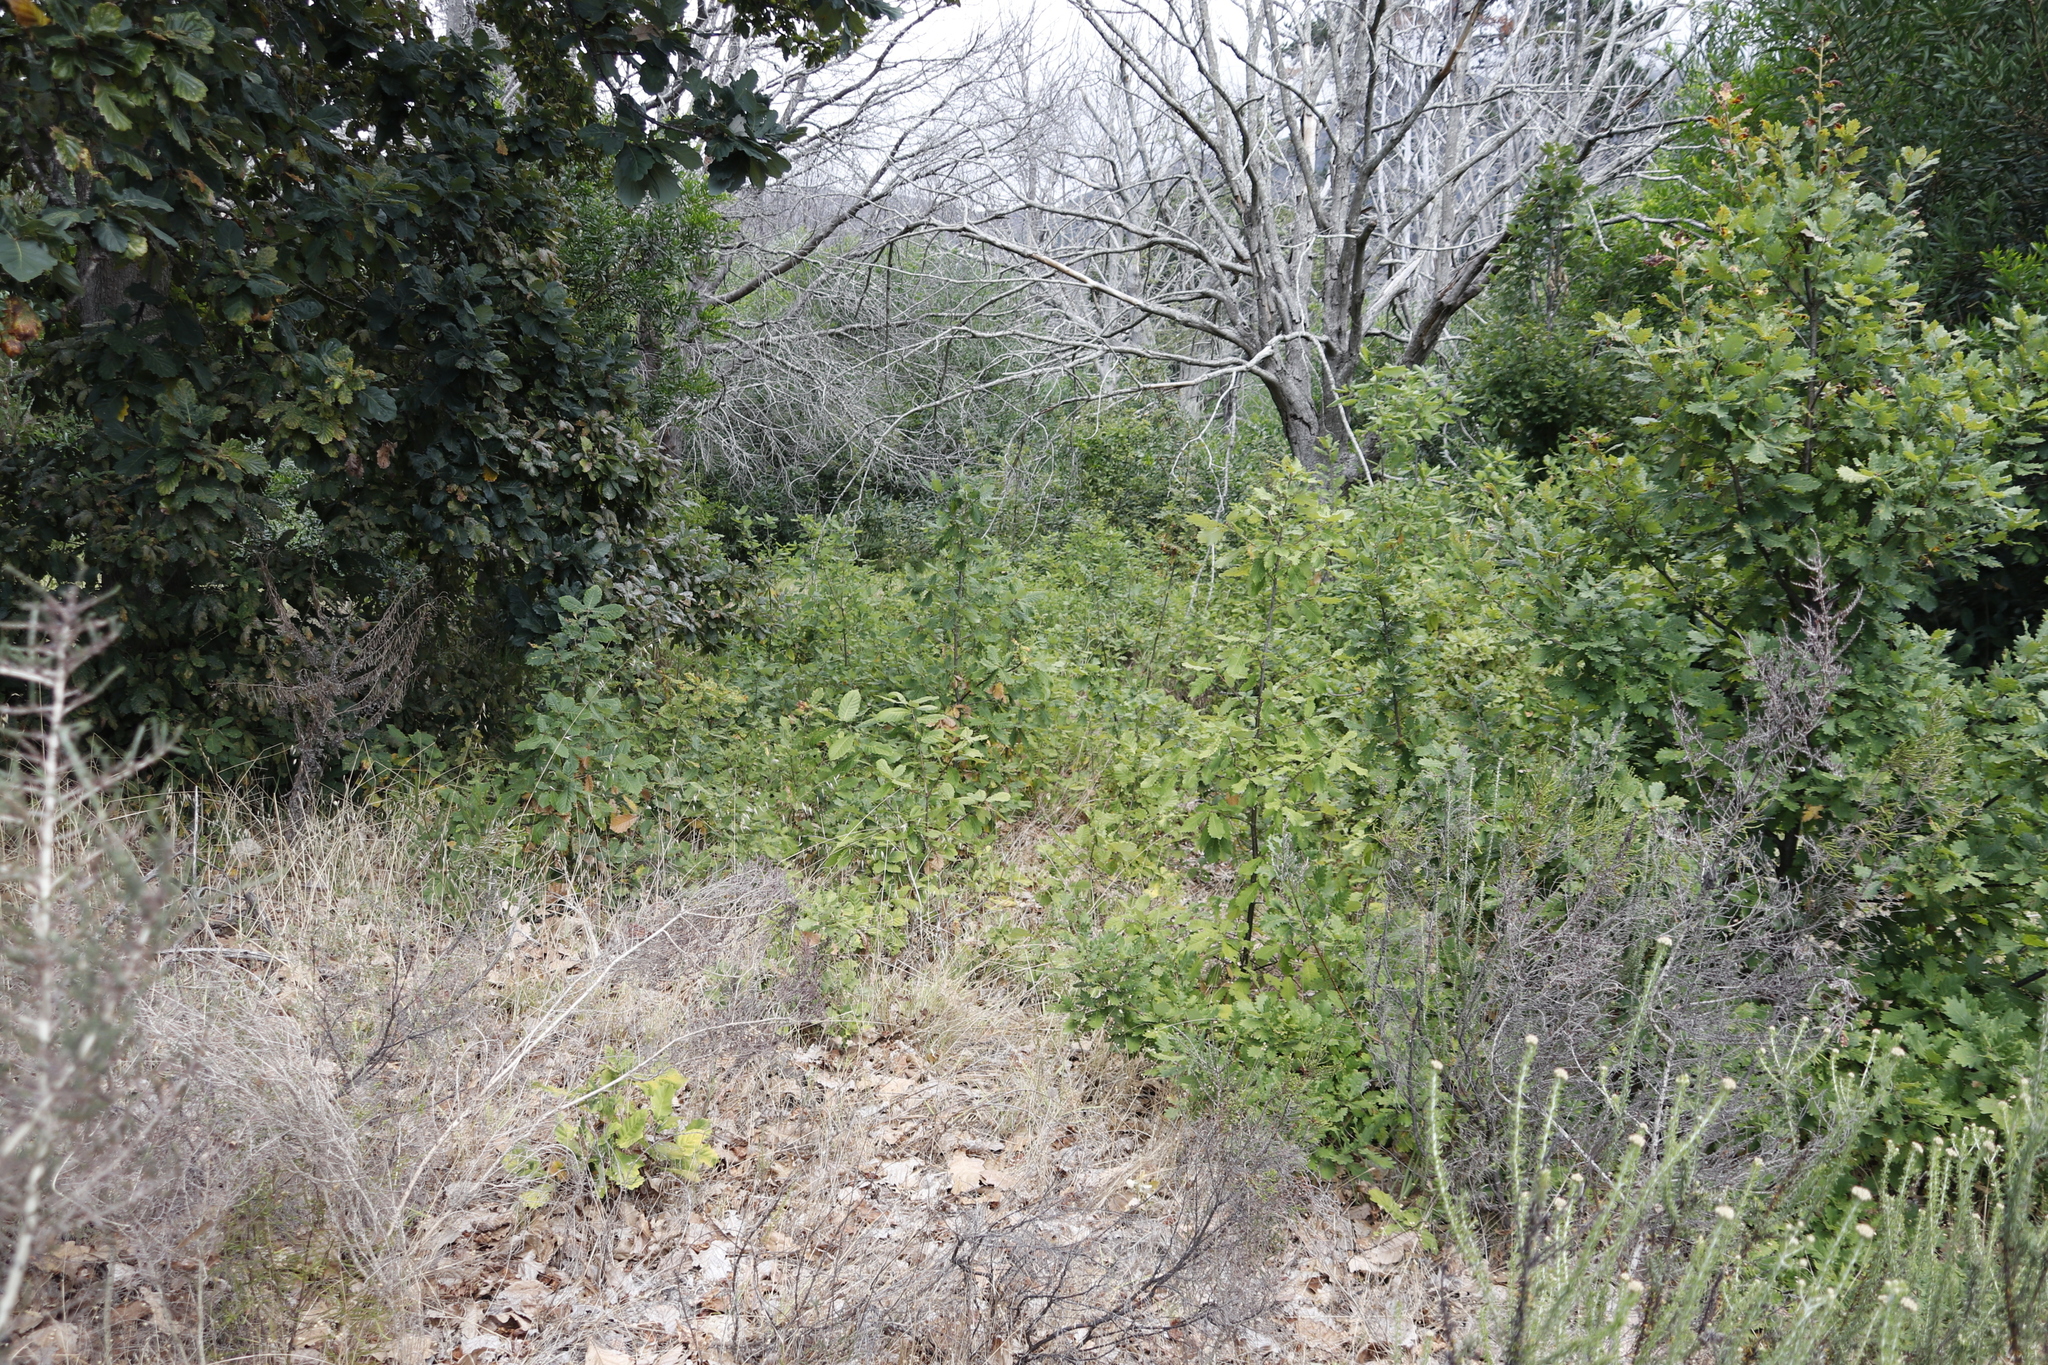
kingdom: Plantae
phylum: Tracheophyta
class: Magnoliopsida
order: Fagales
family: Fagaceae
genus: Quercus
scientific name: Quercus canariensis
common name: Algerian oak
